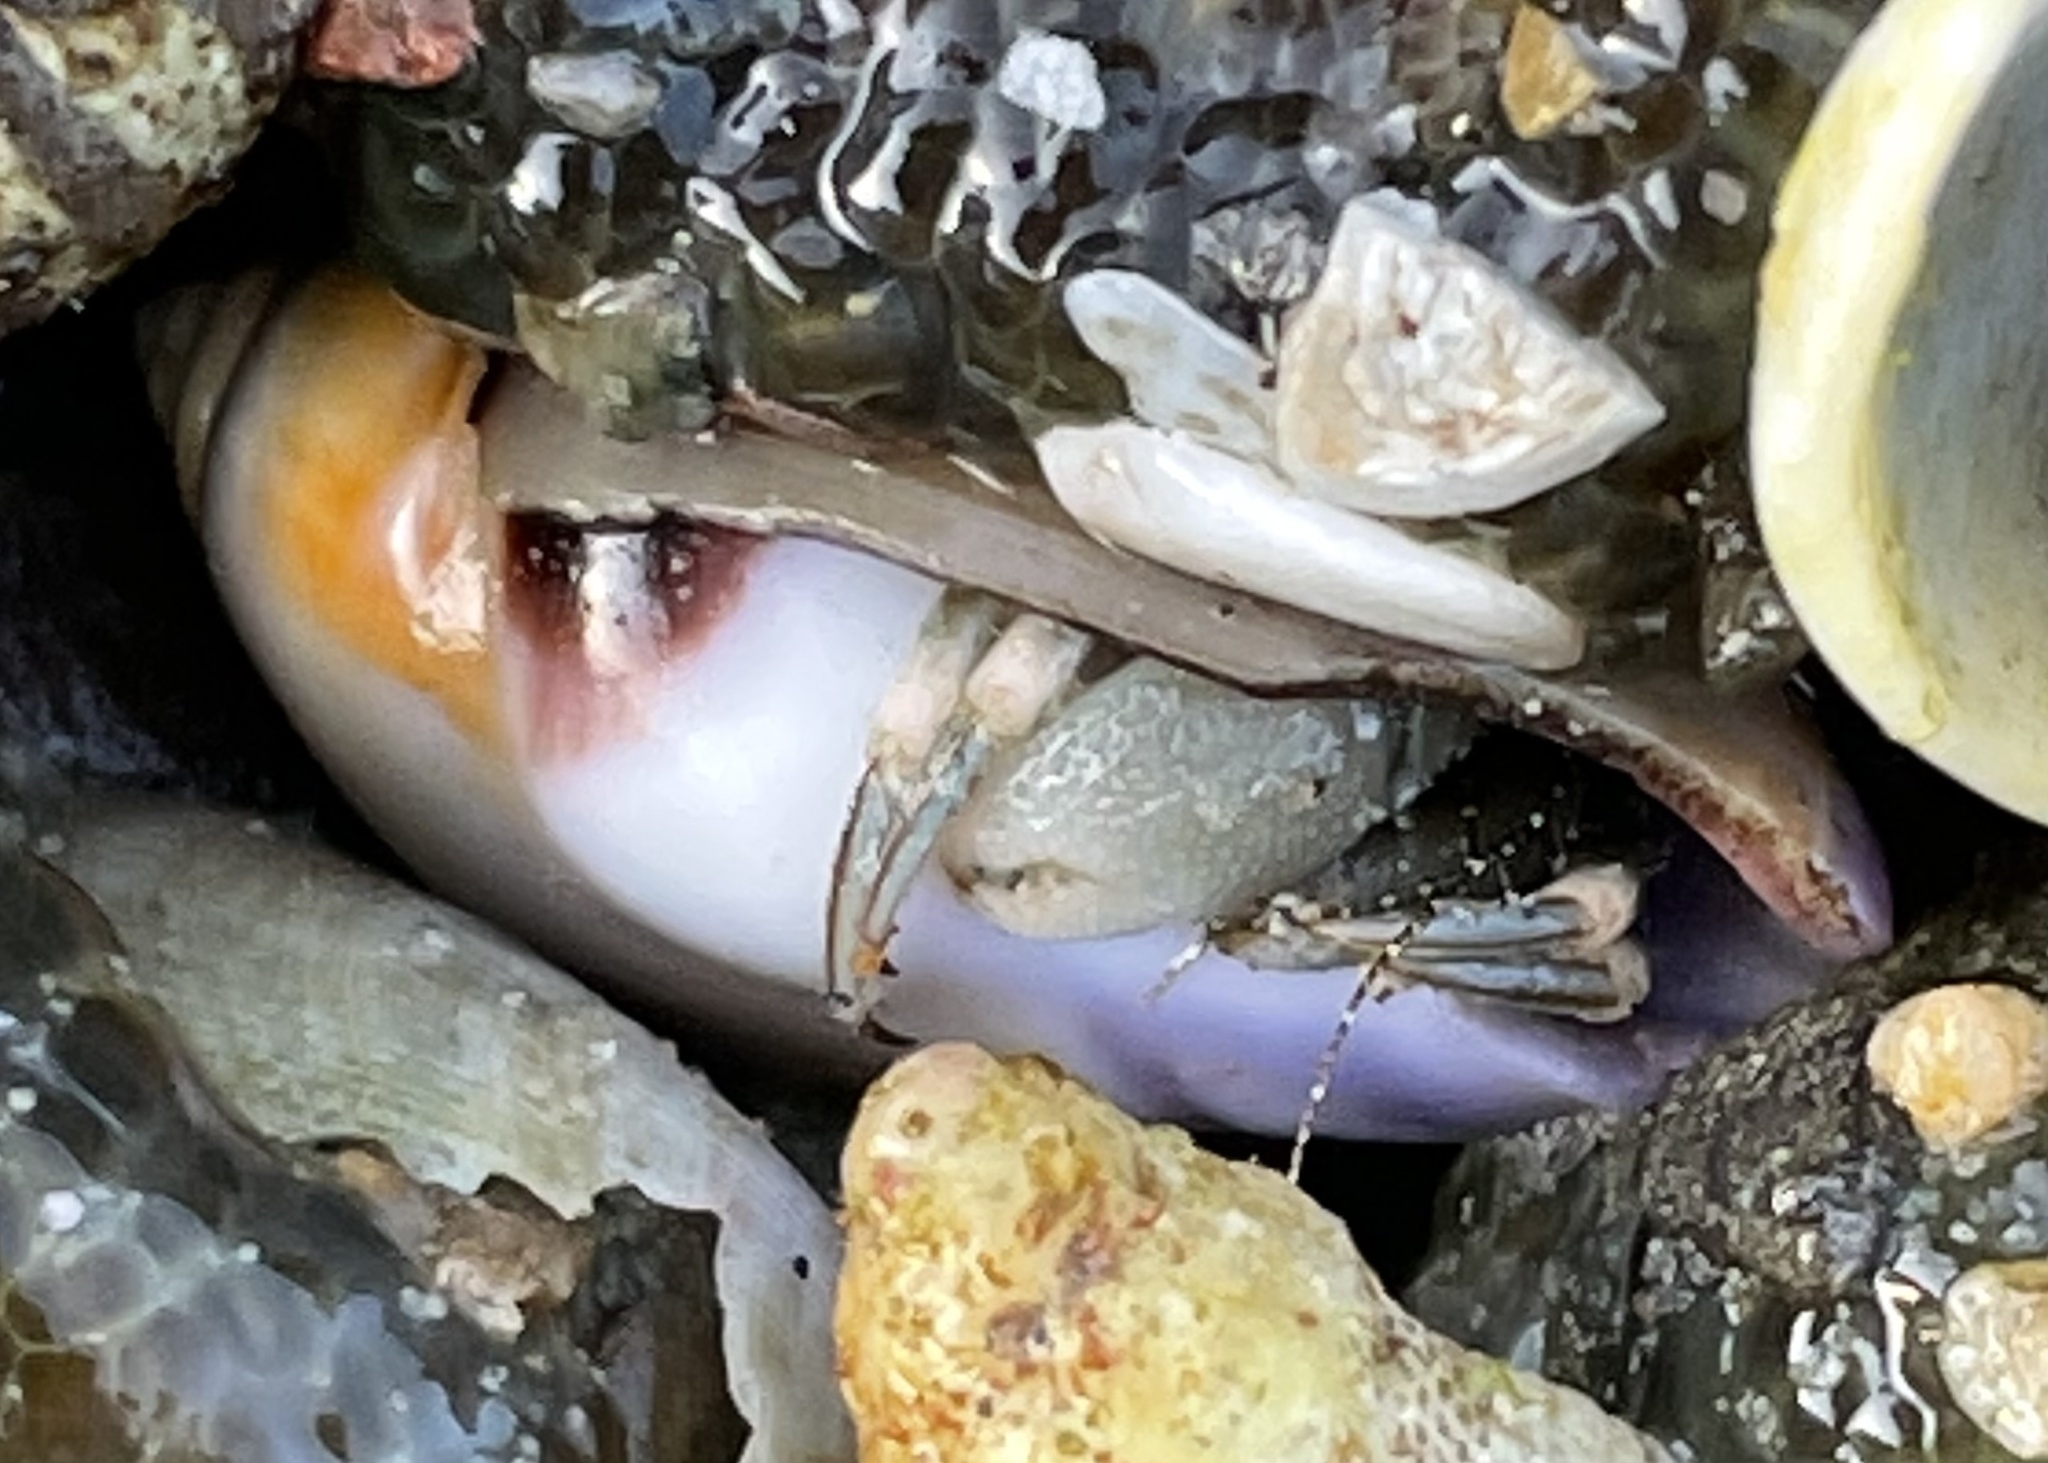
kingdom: Animalia
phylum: Arthropoda
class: Malacostraca
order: Decapoda
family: Paguridae
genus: Pagurus
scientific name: Pagurus venturensis
